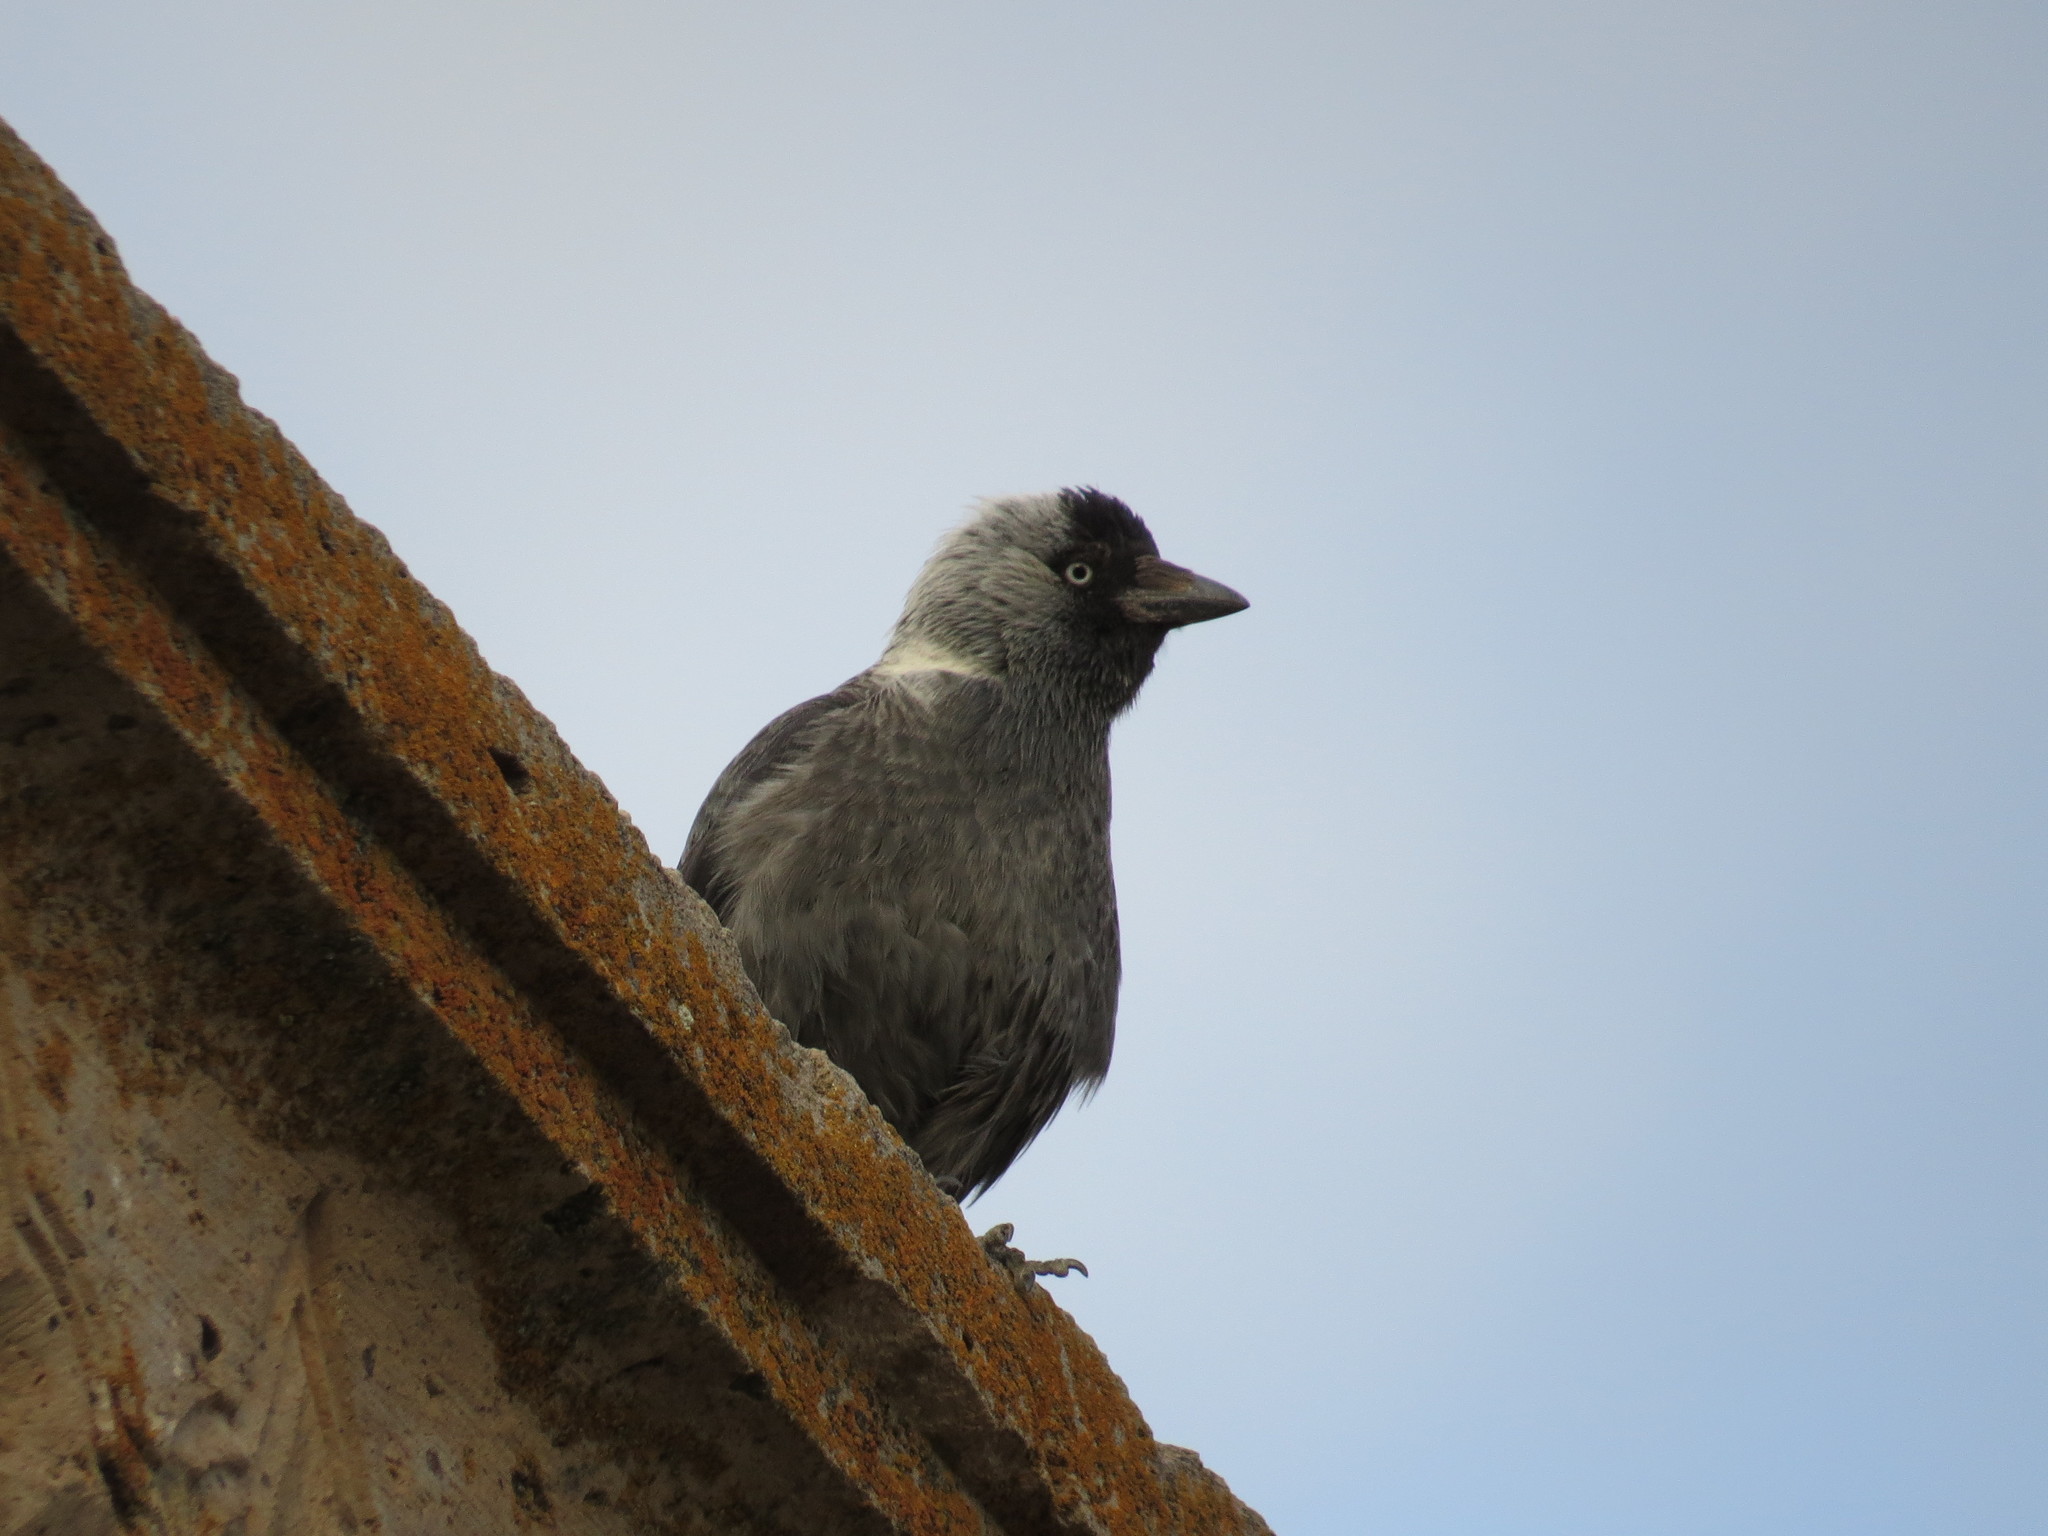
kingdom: Animalia
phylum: Chordata
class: Aves
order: Passeriformes
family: Corvidae
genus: Coloeus
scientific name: Coloeus monedula
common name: Western jackdaw
